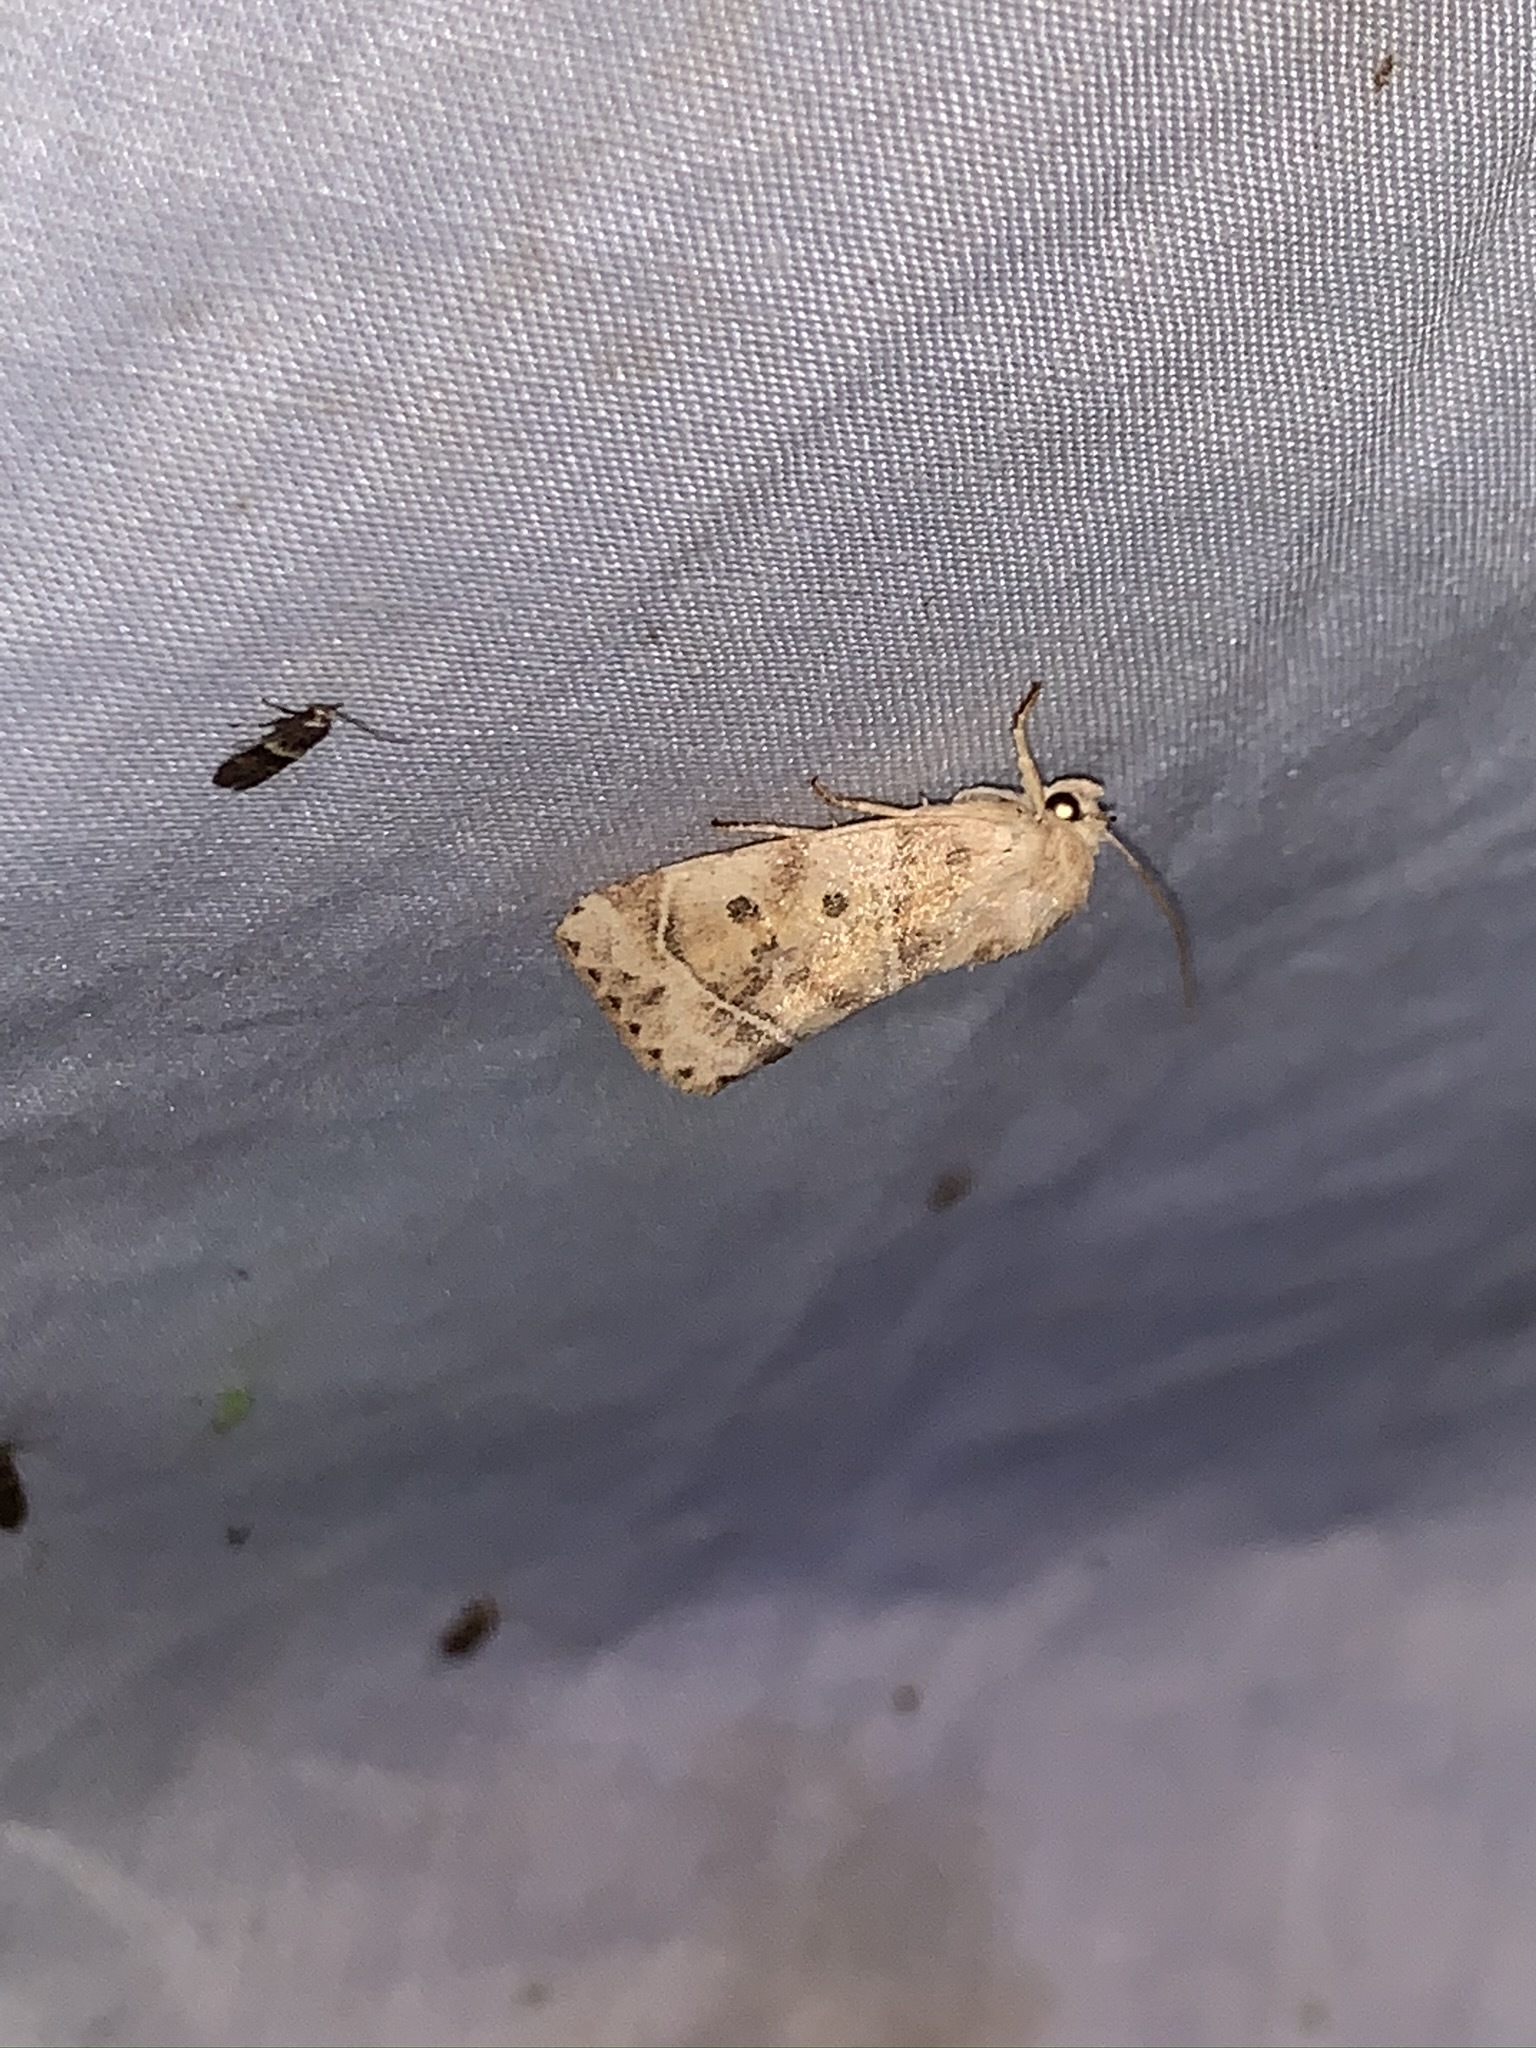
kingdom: Animalia
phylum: Arthropoda
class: Insecta
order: Lepidoptera
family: Noctuidae
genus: Cosmia
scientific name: Cosmia calami
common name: American dun-bar moth
